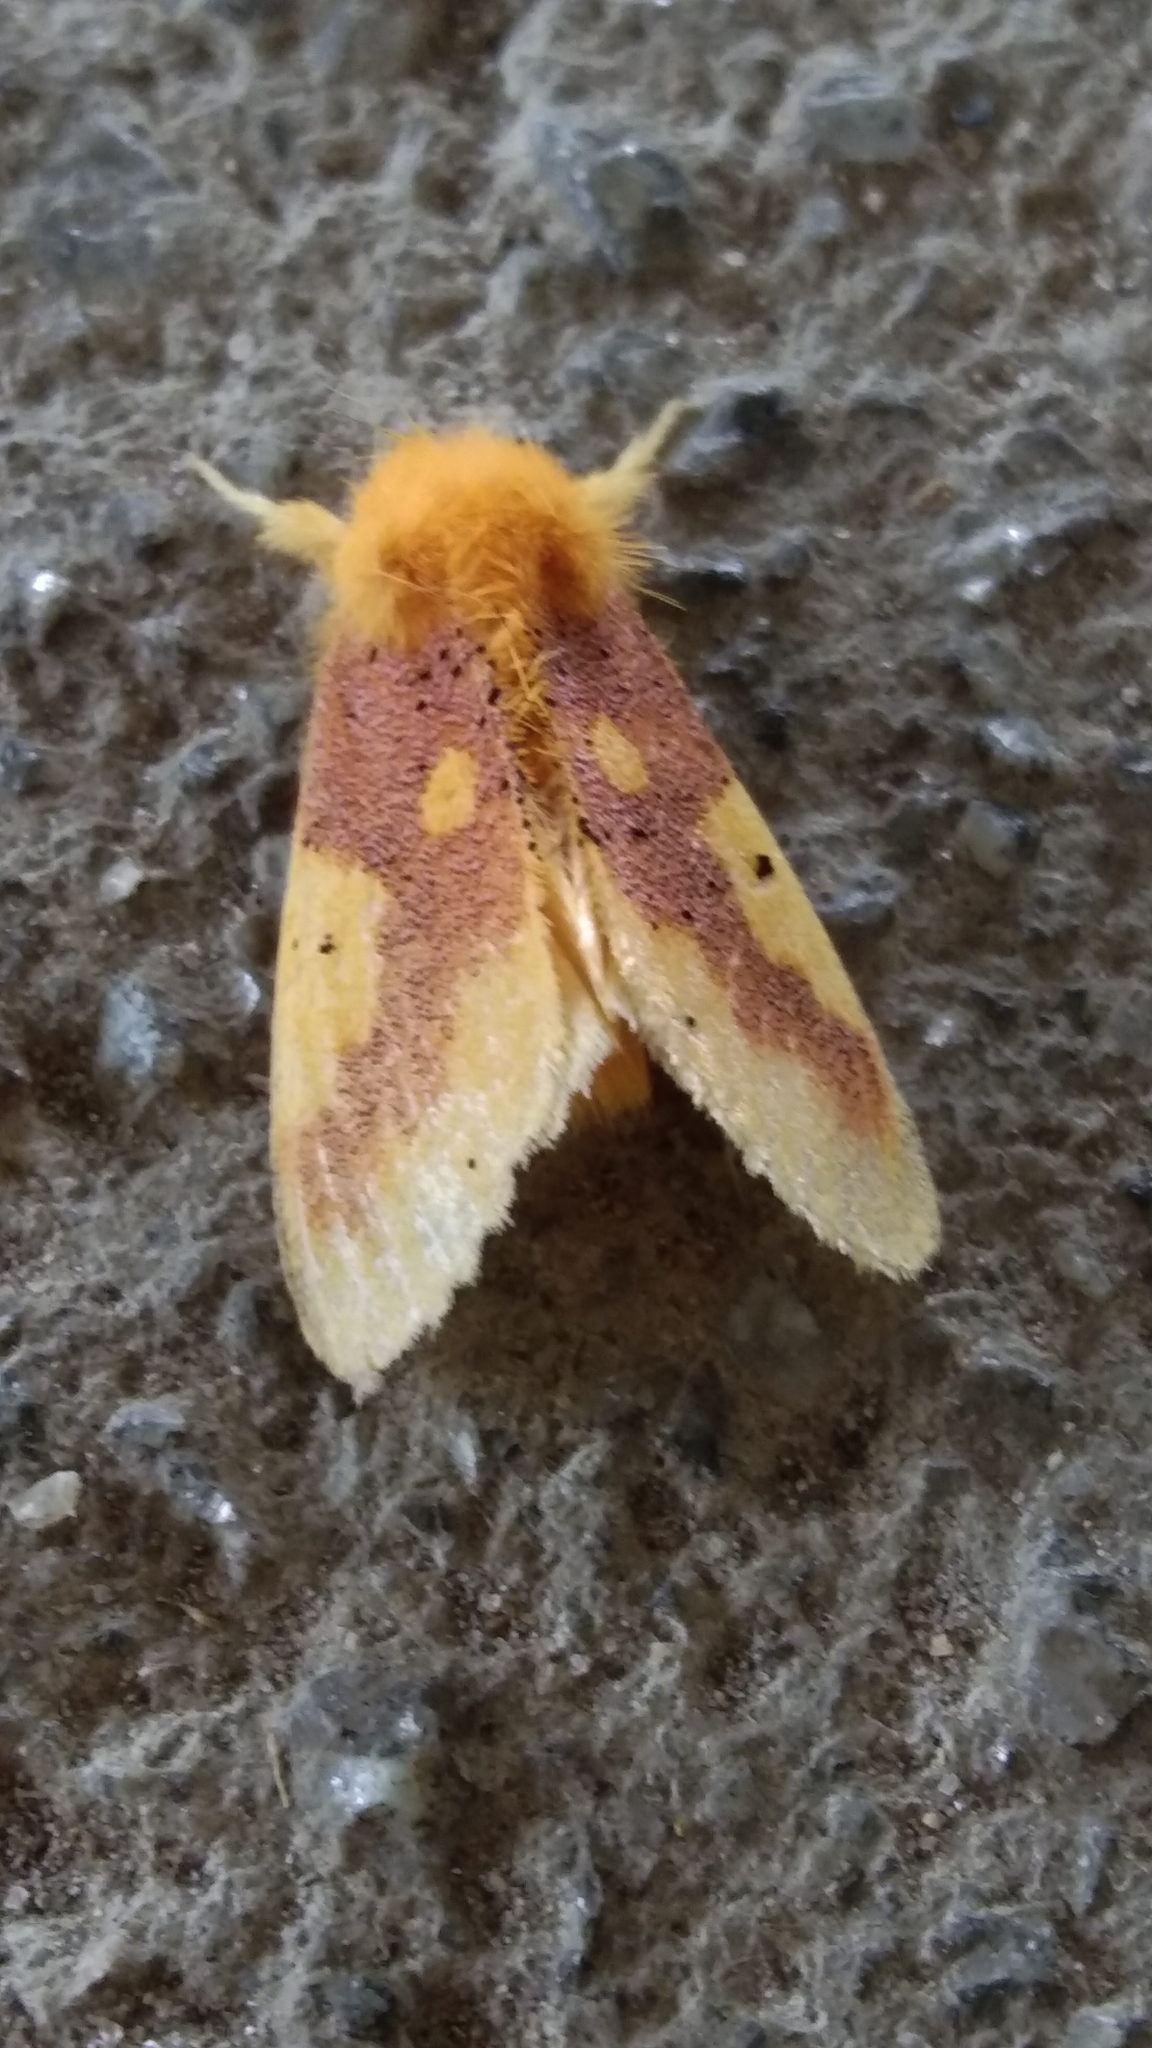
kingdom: Animalia
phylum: Arthropoda
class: Insecta
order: Lepidoptera
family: Erebidae
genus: Nygmia
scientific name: Nygmia icilia
